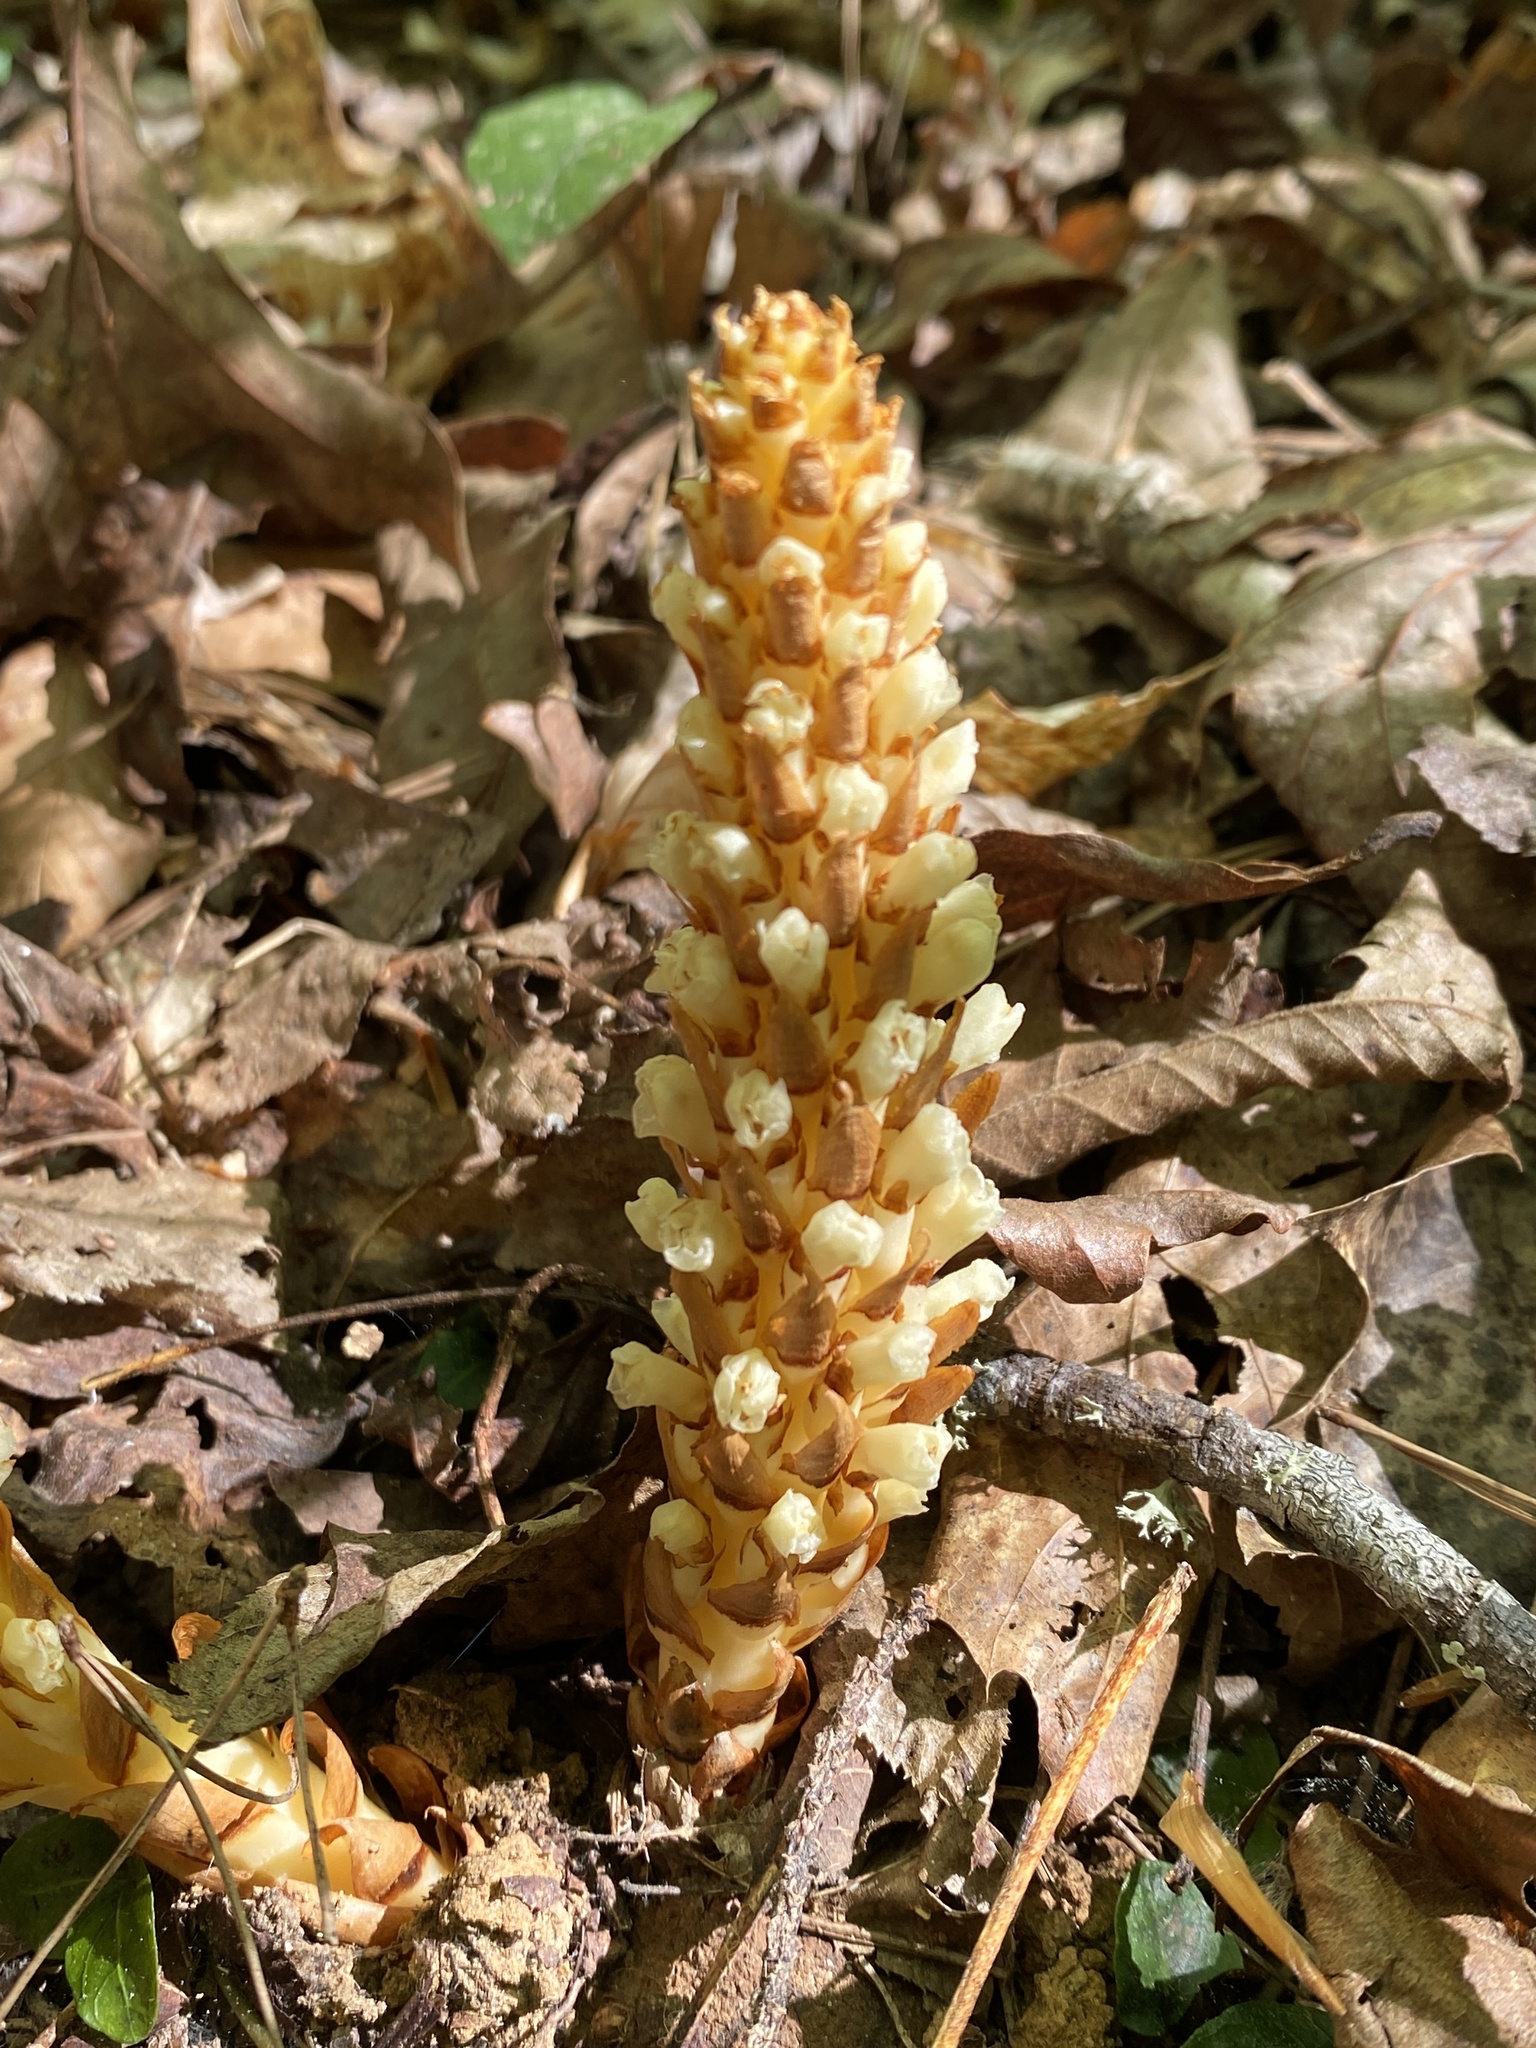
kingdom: Plantae
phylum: Tracheophyta
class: Magnoliopsida
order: Lamiales
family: Orobanchaceae
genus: Conopholis
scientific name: Conopholis americana
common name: American cancer-root
